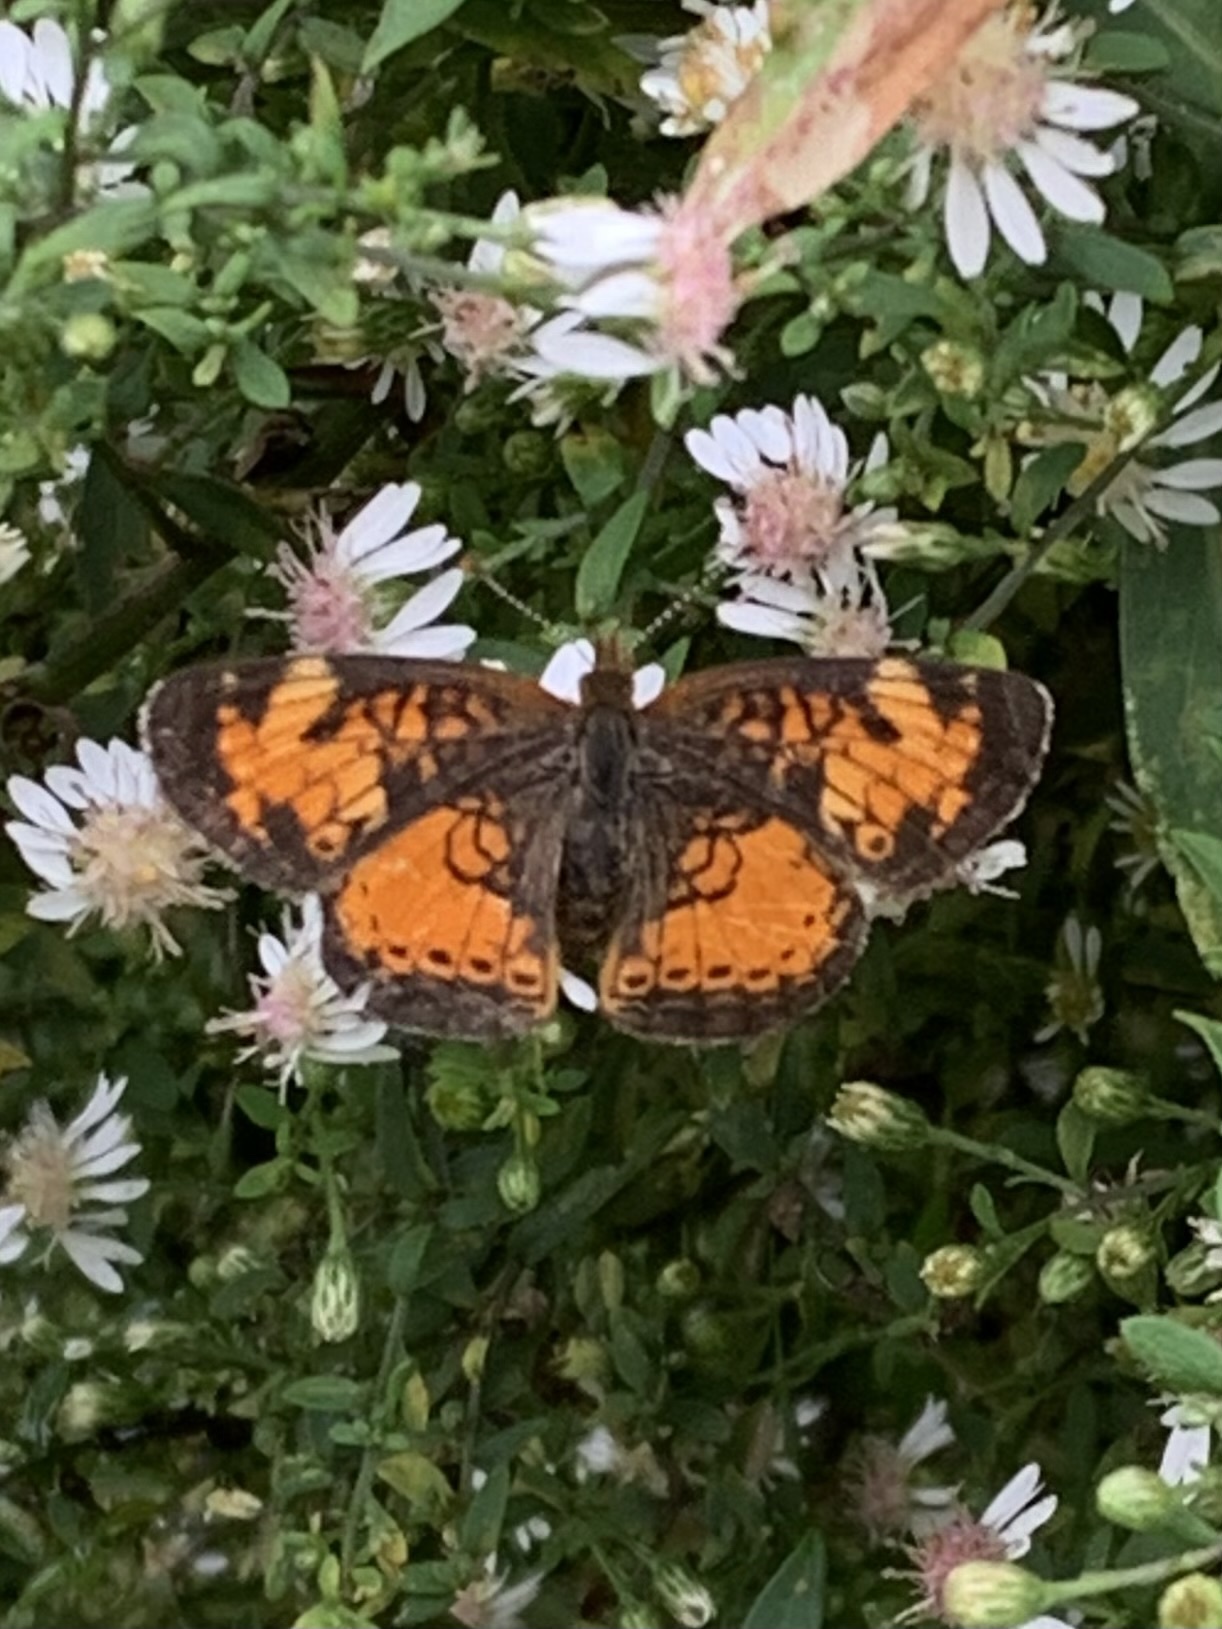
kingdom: Animalia
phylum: Arthropoda
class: Insecta
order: Lepidoptera
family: Nymphalidae
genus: Phyciodes
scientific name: Phyciodes tharos
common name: Pearl crescent
